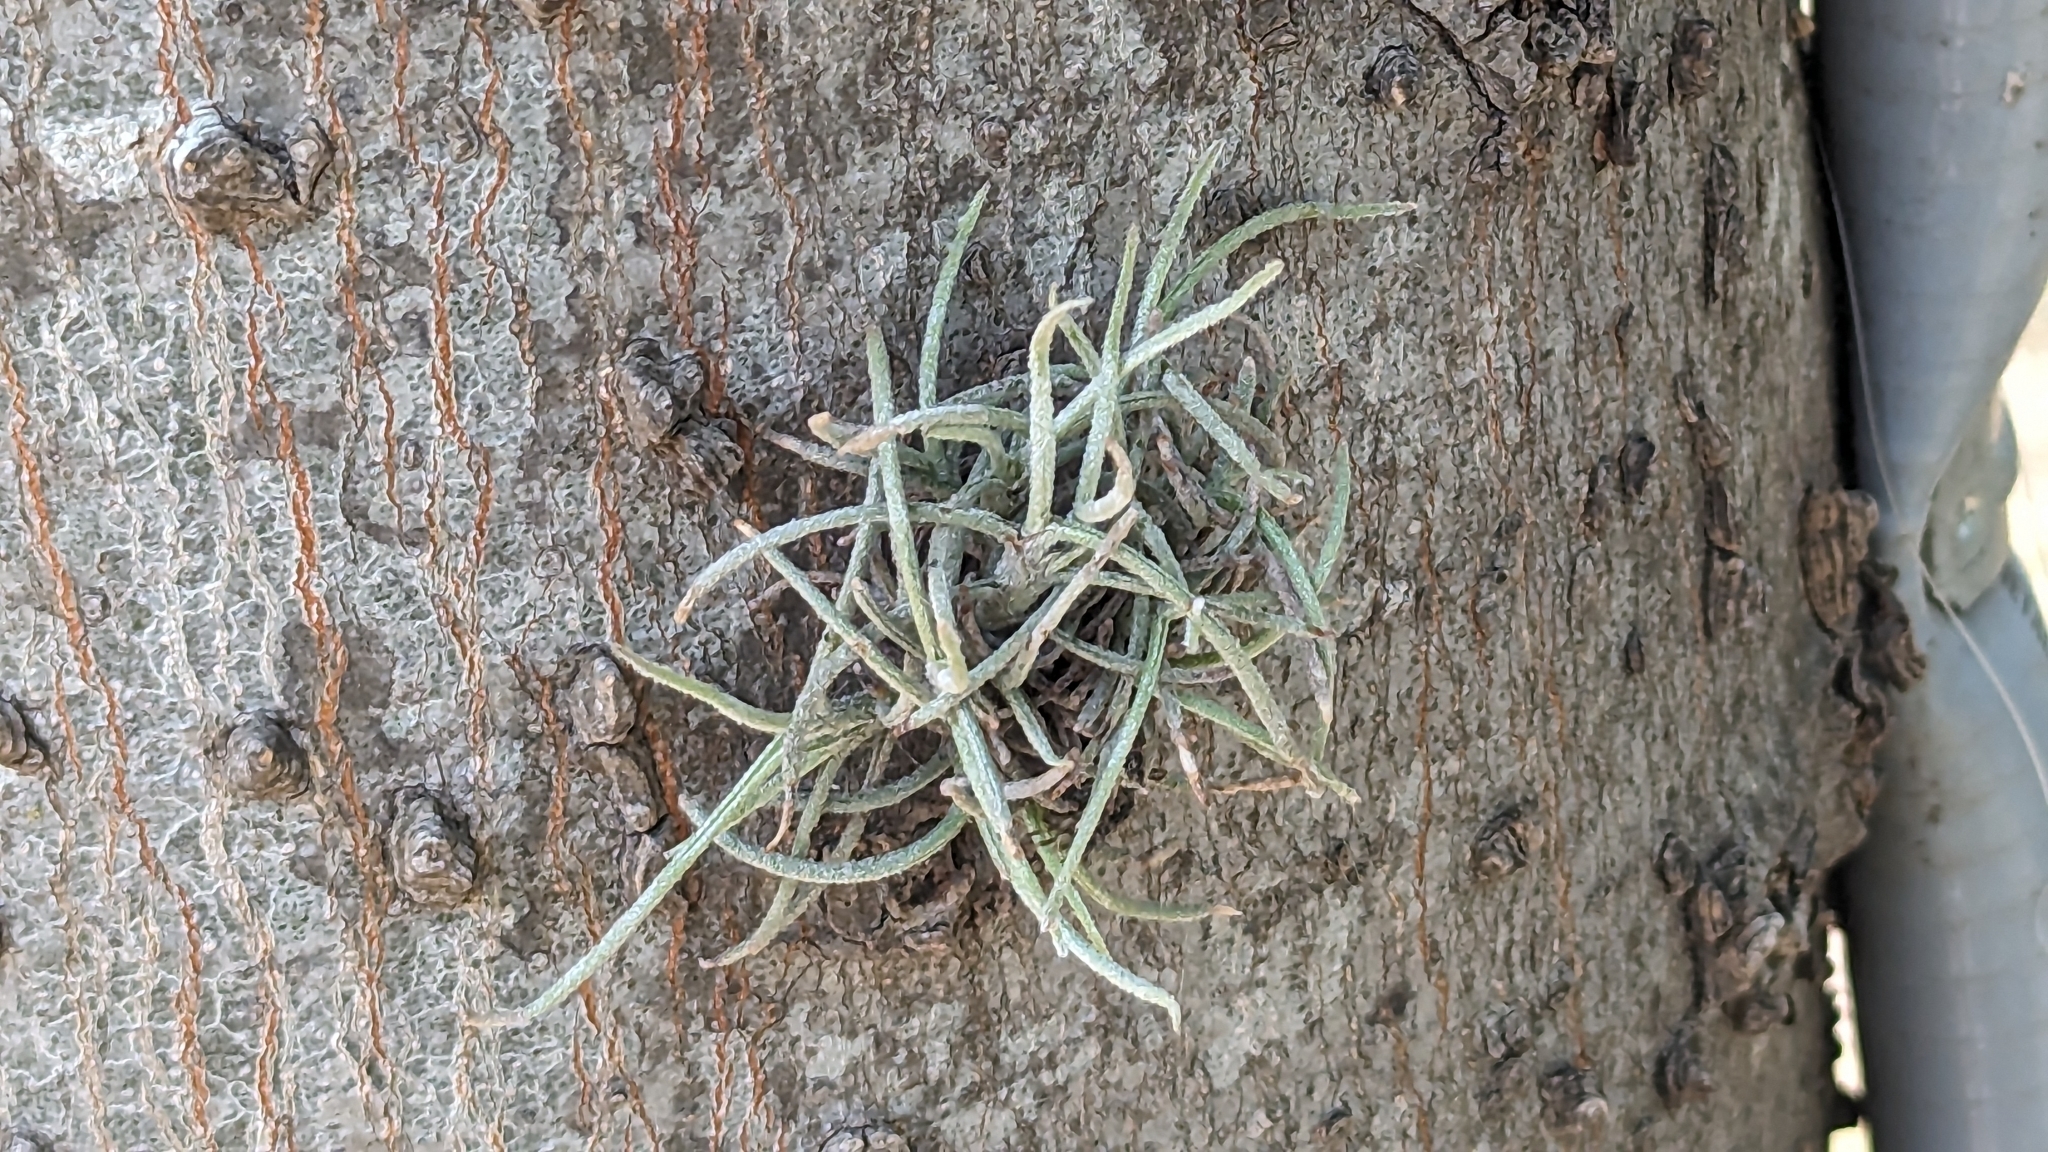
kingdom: Plantae
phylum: Tracheophyta
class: Liliopsida
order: Poales
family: Bromeliaceae
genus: Tillandsia
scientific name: Tillandsia recurvata
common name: Small ballmoss
